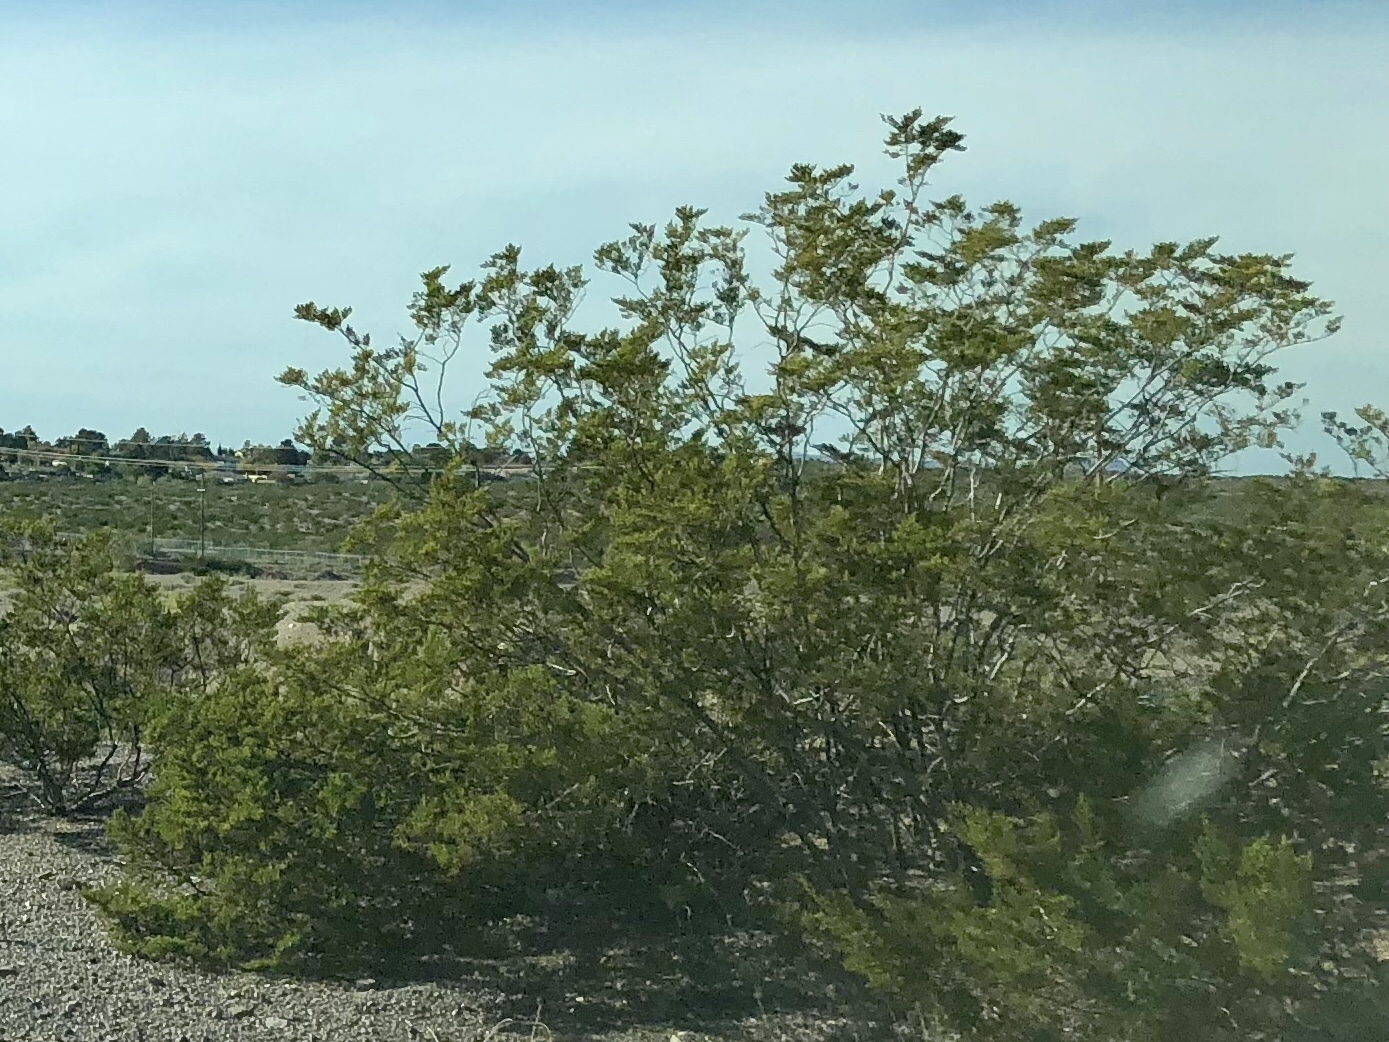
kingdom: Plantae
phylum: Tracheophyta
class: Magnoliopsida
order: Zygophyllales
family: Zygophyllaceae
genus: Larrea
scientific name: Larrea tridentata
